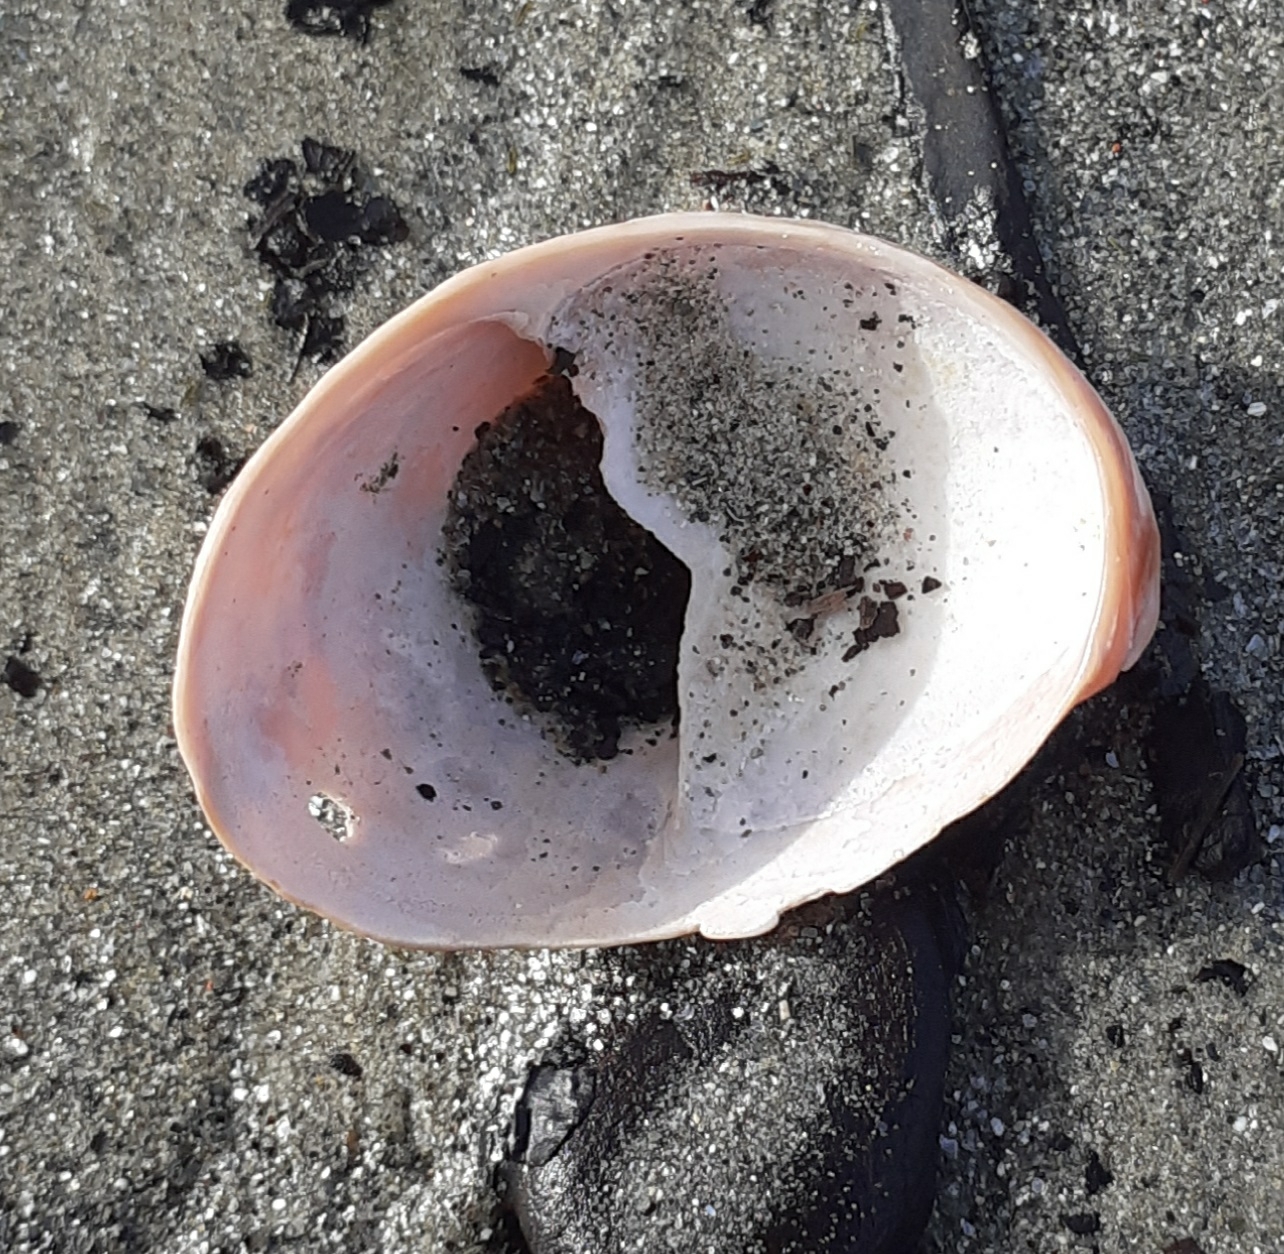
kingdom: Animalia
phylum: Mollusca
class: Gastropoda
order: Littorinimorpha
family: Calyptraeidae
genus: Crepidula
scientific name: Crepidula fornicata
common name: Slipper limpet
